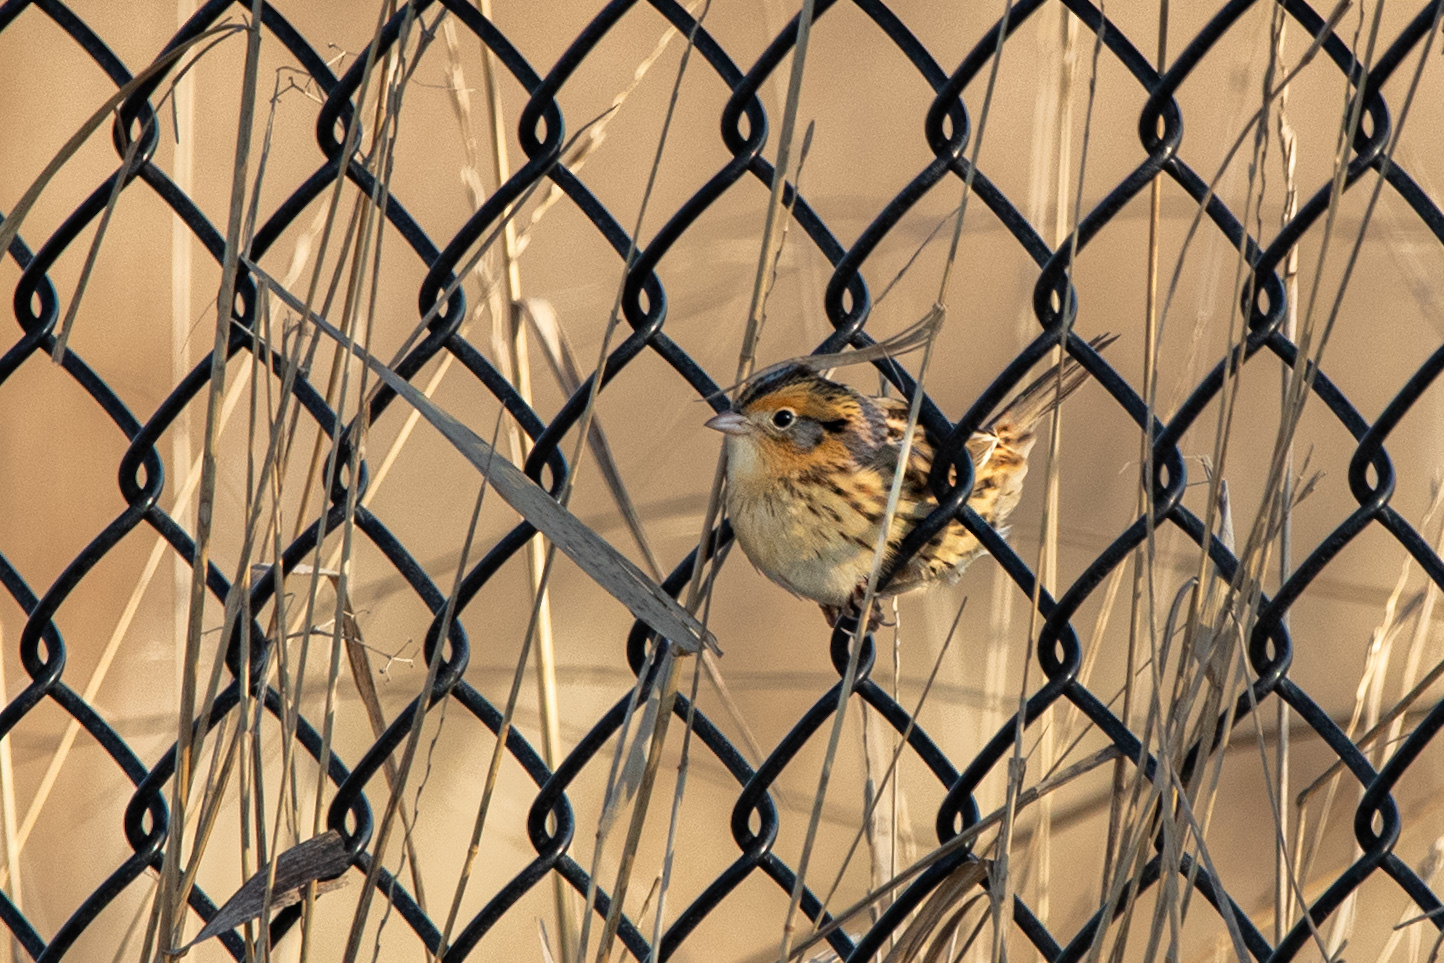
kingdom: Animalia
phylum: Chordata
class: Aves
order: Passeriformes
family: Passerellidae
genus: Ammospiza
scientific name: Ammospiza leconteii
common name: Le conte's sparrow
